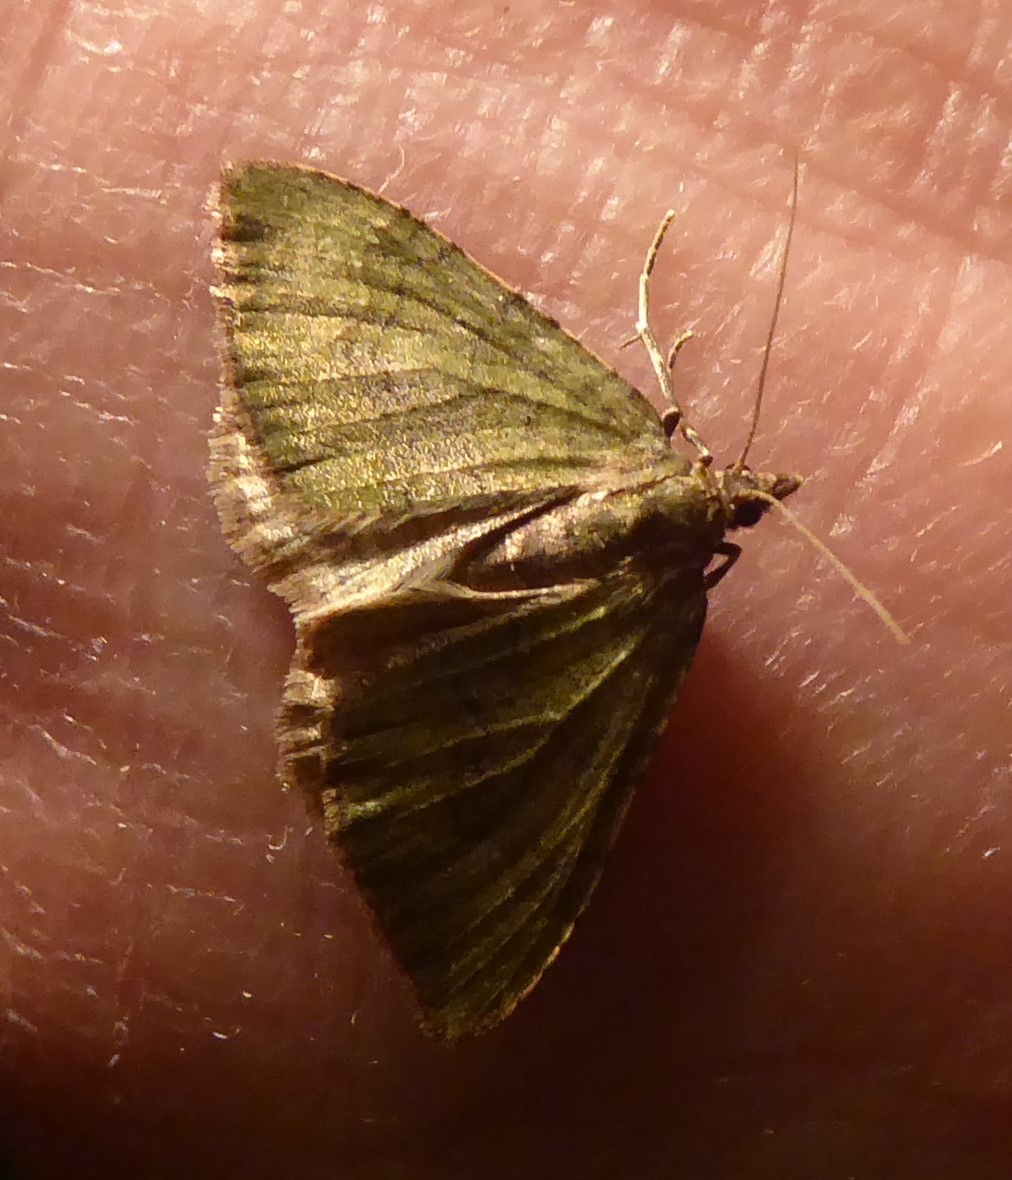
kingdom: Animalia
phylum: Arthropoda
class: Insecta
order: Lepidoptera
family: Geometridae
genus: Epyaxa
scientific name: Epyaxa rosearia
